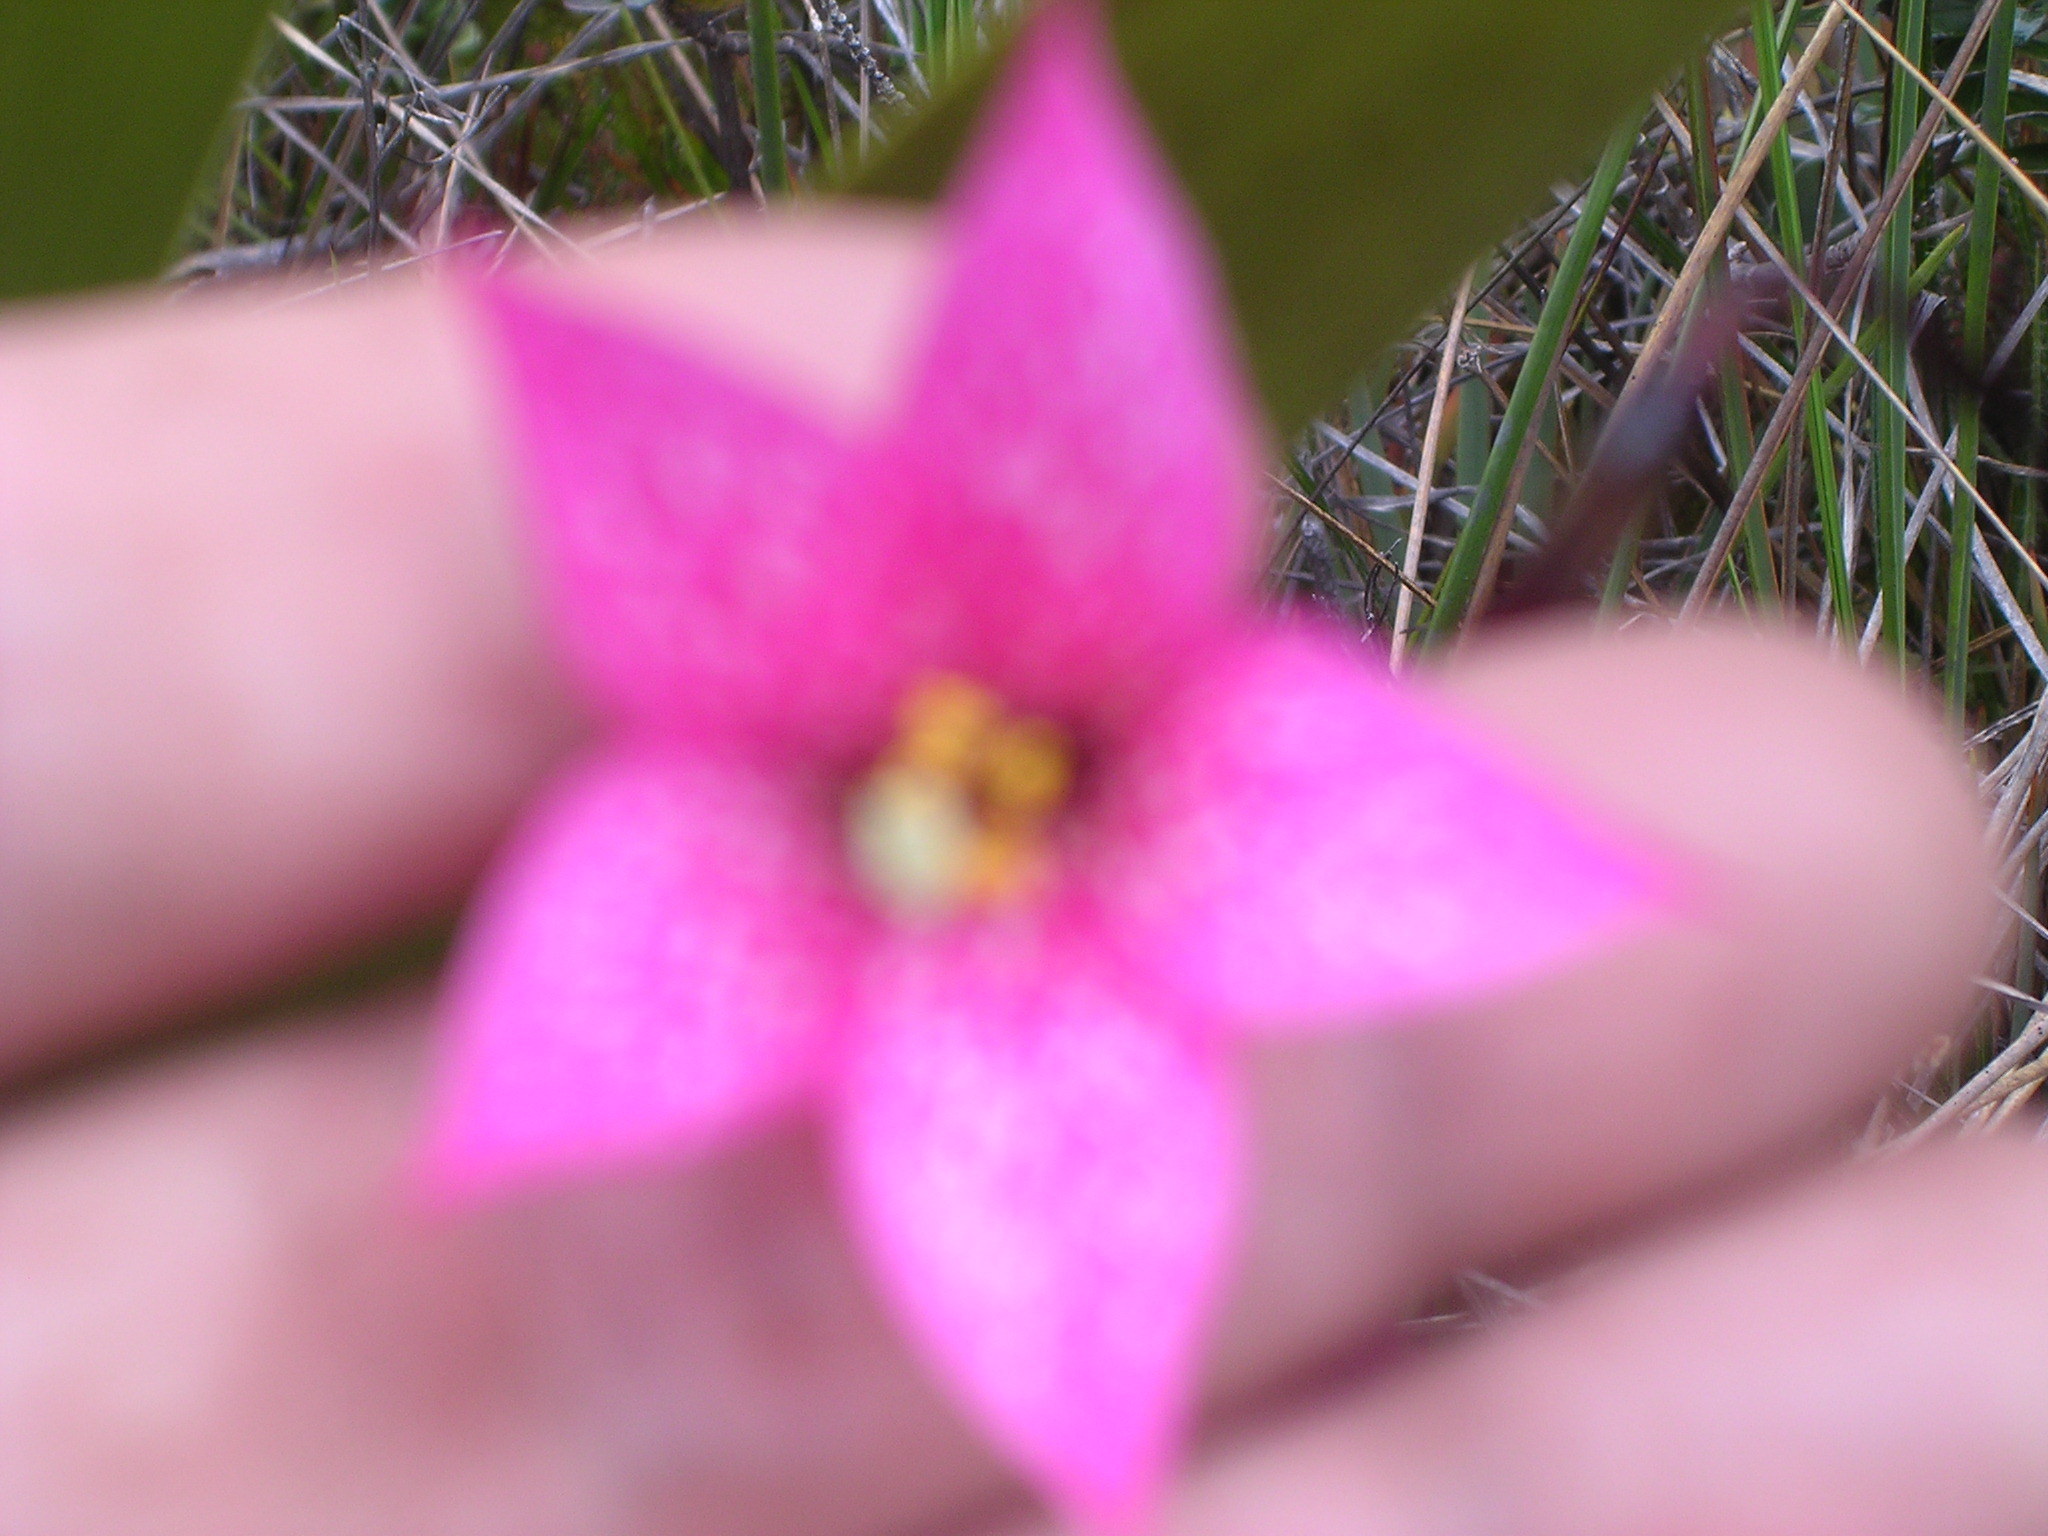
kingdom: Plantae
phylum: Tracheophyta
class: Magnoliopsida
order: Gentianales
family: Gentianaceae
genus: Celiantha
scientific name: Celiantha imthurniana
